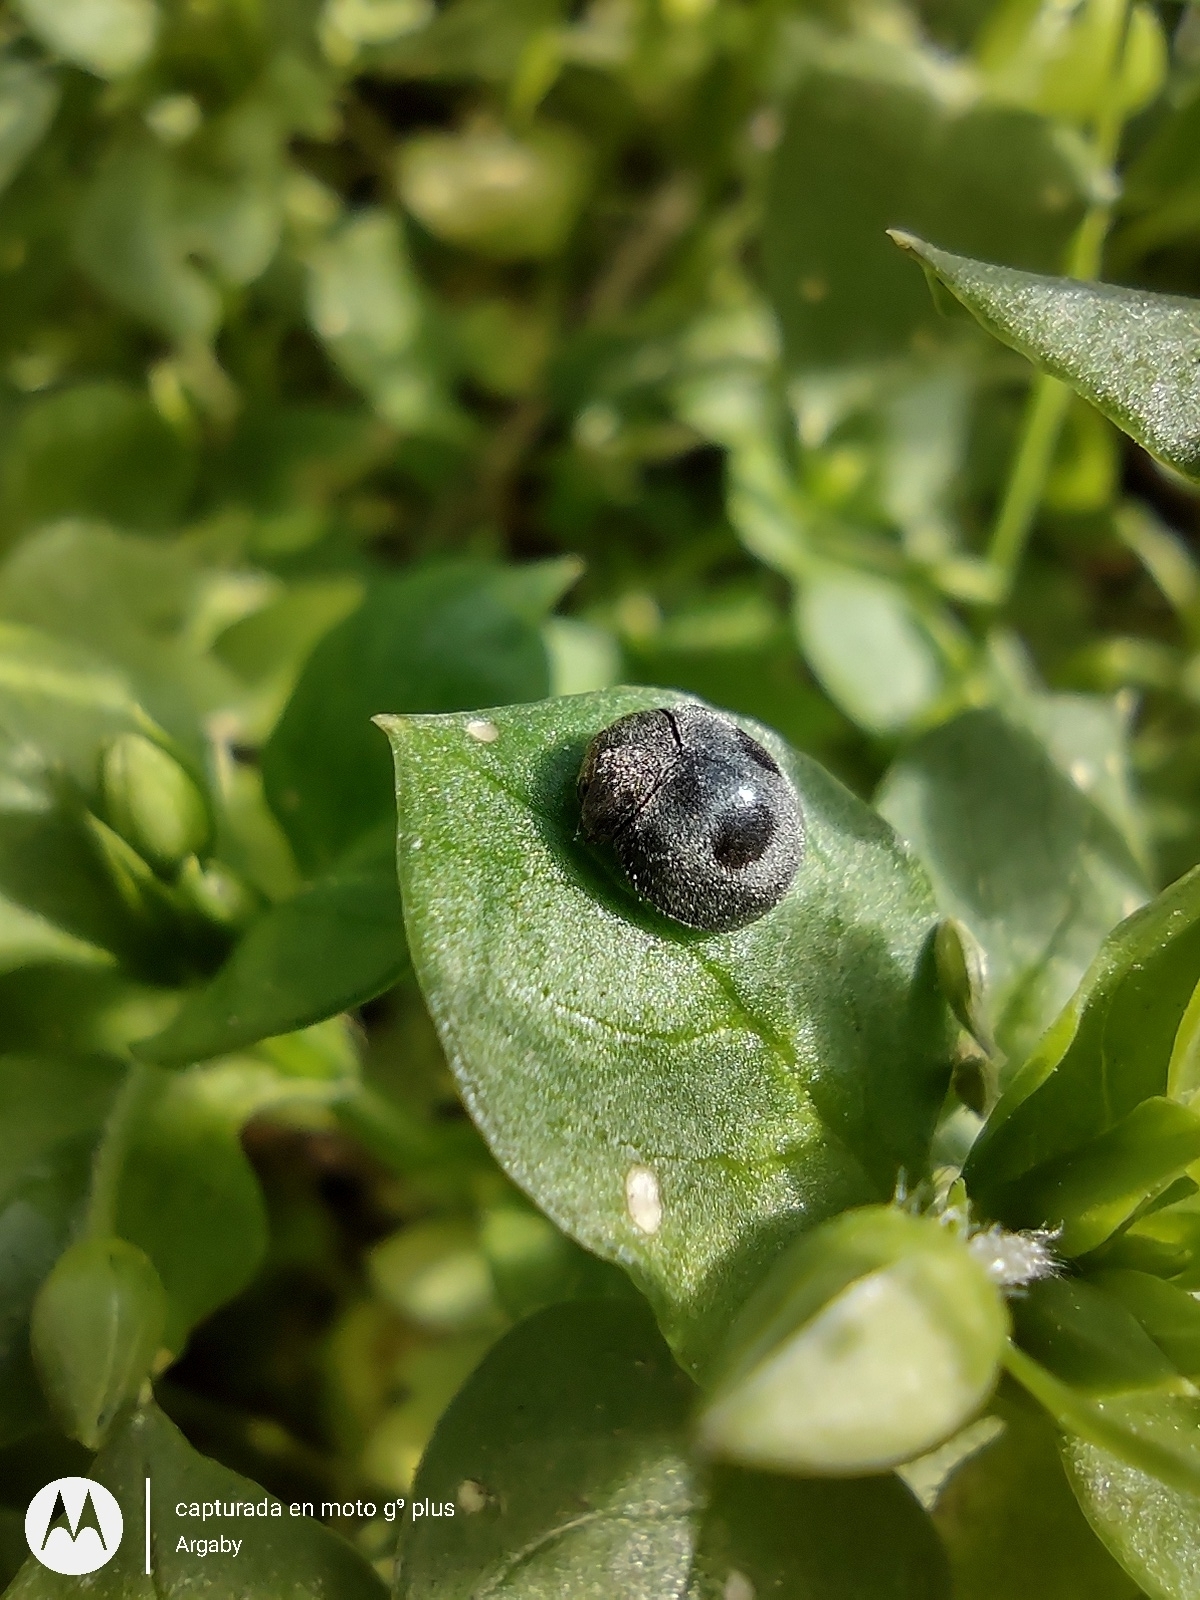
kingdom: Animalia
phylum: Arthropoda
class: Insecta
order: Coleoptera
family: Coccinellidae
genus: Azya
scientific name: Azya luteipes
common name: Ladybird beetle
